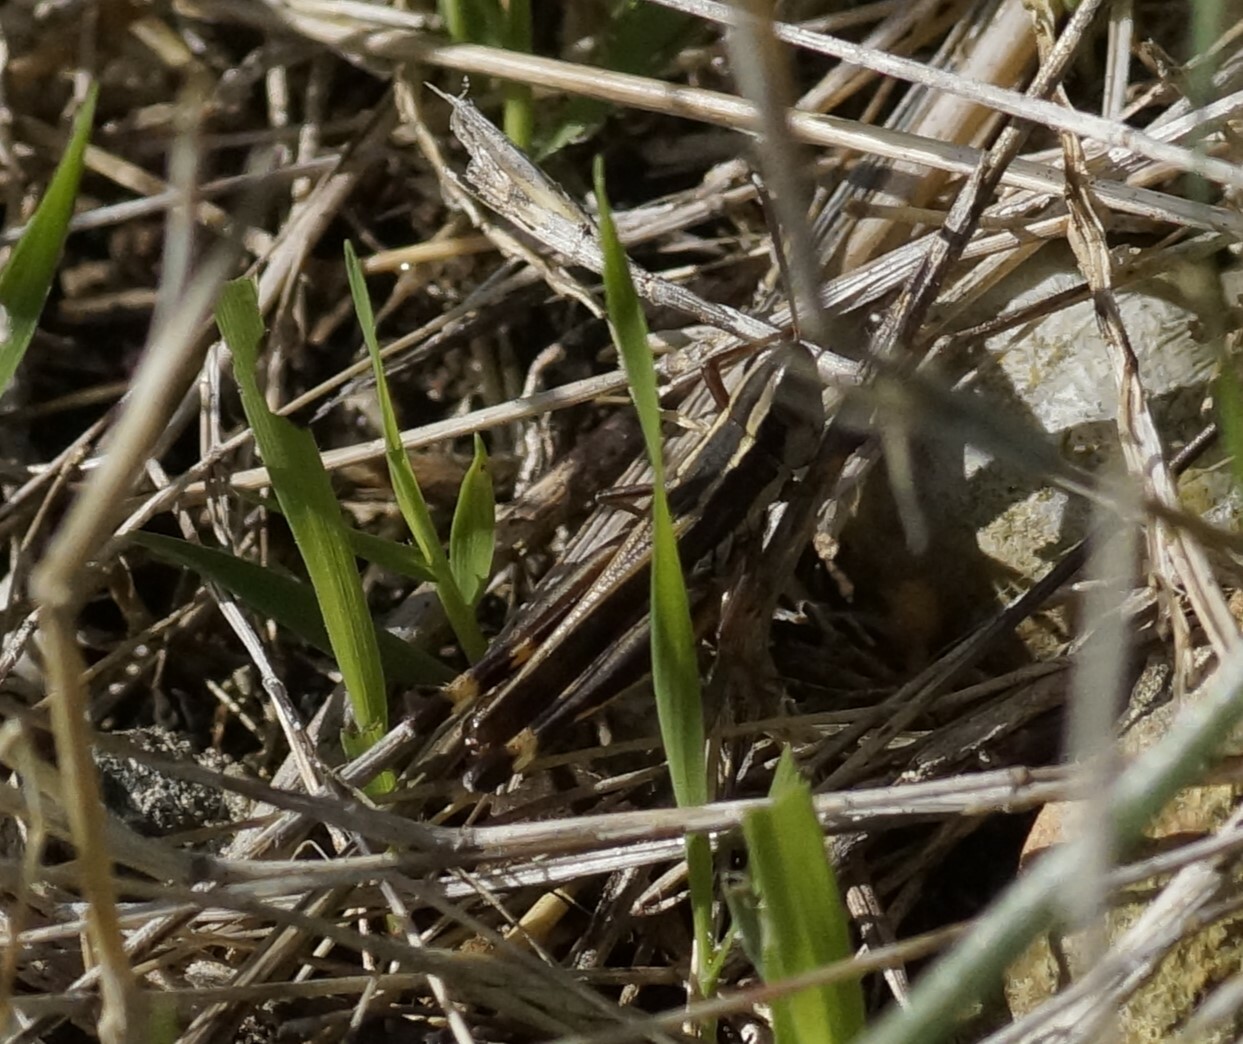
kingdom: Animalia
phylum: Arthropoda
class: Insecta
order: Orthoptera
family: Acrididae
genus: Macrotona
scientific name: Macrotona australis
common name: Common macrotona
